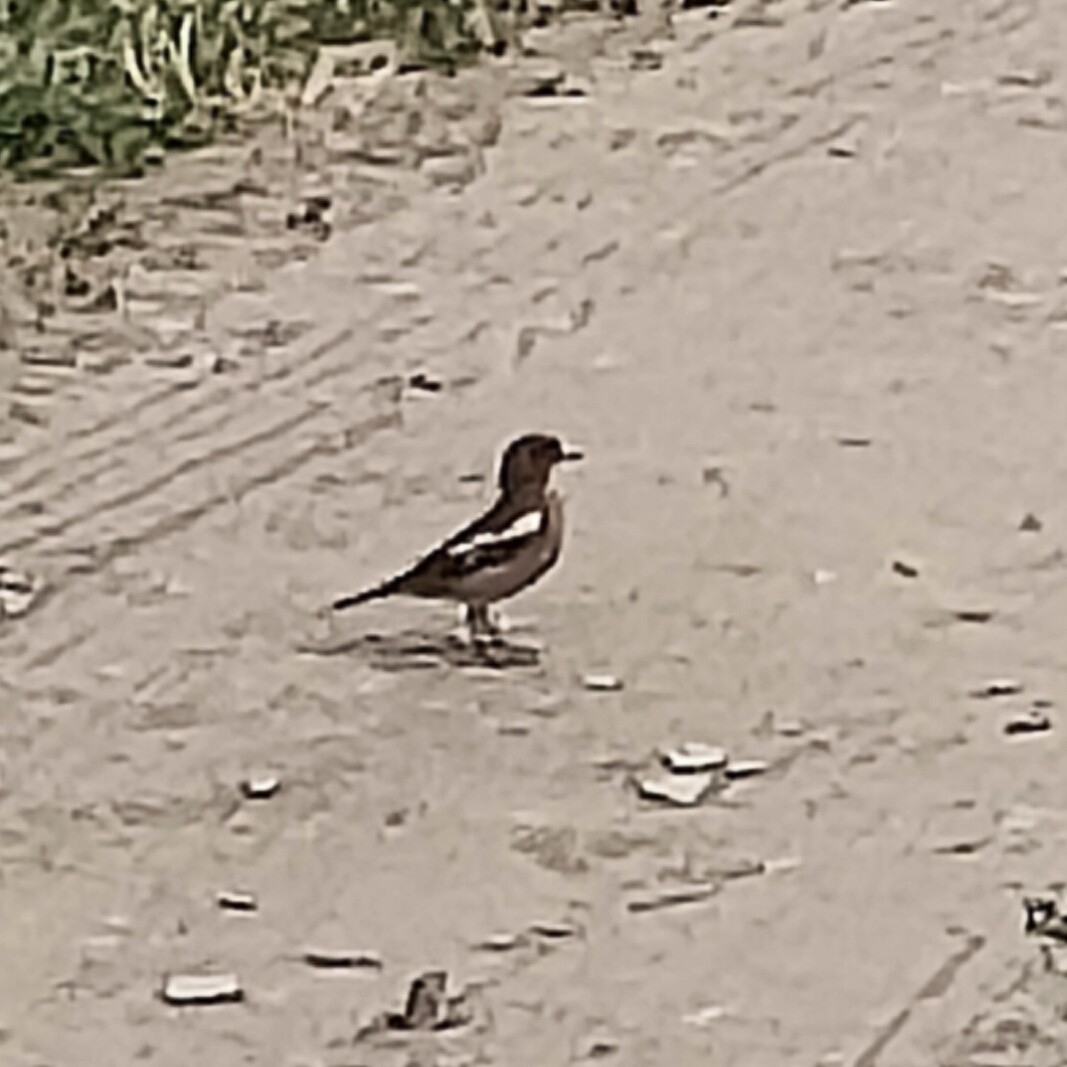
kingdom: Animalia
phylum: Chordata
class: Aves
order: Passeriformes
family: Fringillidae
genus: Fringilla
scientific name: Fringilla coelebs
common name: Common chaffinch
